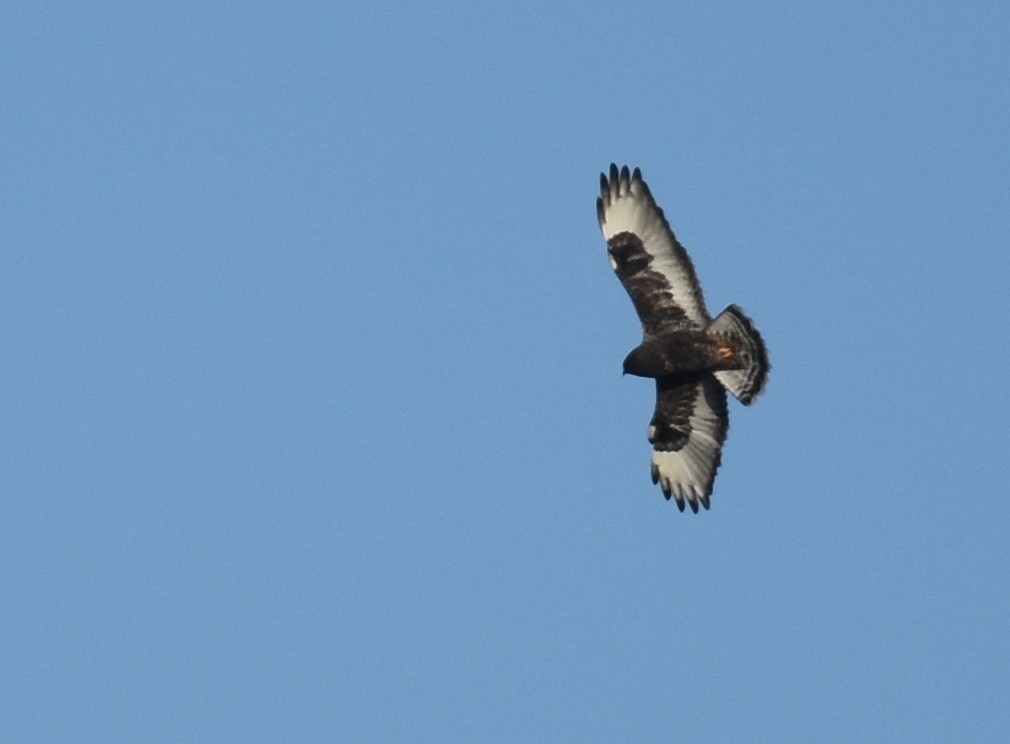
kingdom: Animalia
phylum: Chordata
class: Aves
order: Accipitriformes
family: Accipitridae
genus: Buteo
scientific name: Buteo lagopus
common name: Rough-legged buzzard
